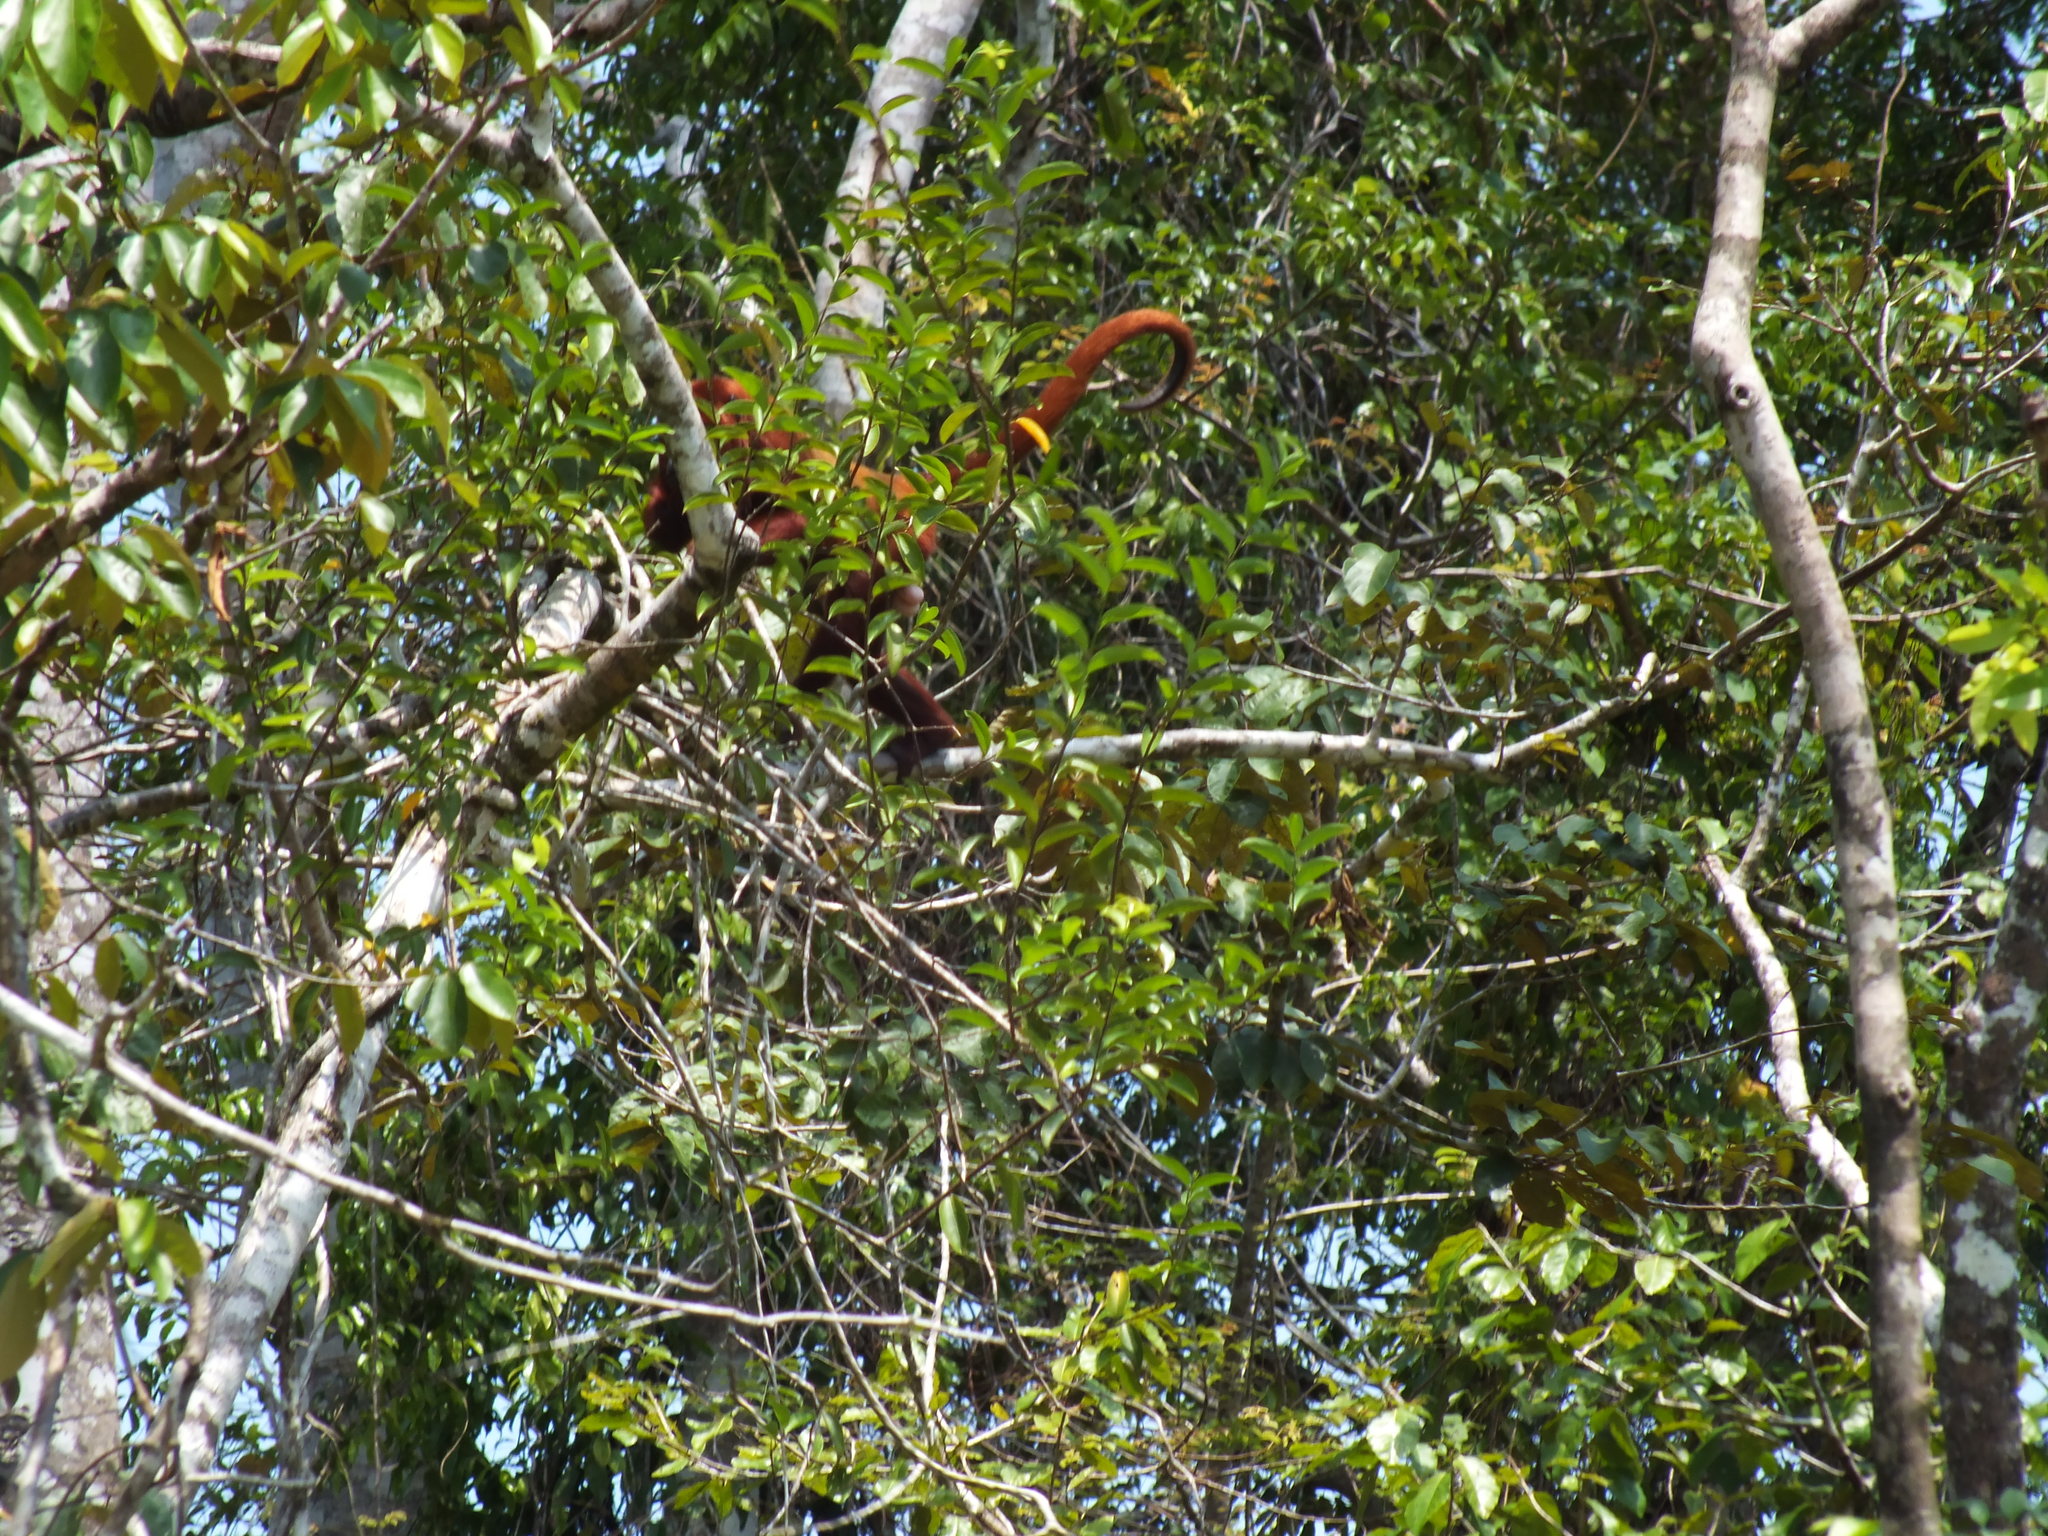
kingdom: Animalia
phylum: Chordata
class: Mammalia
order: Primates
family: Atelidae
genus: Alouatta
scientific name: Alouatta seniculus
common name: Venezuelan red howler
